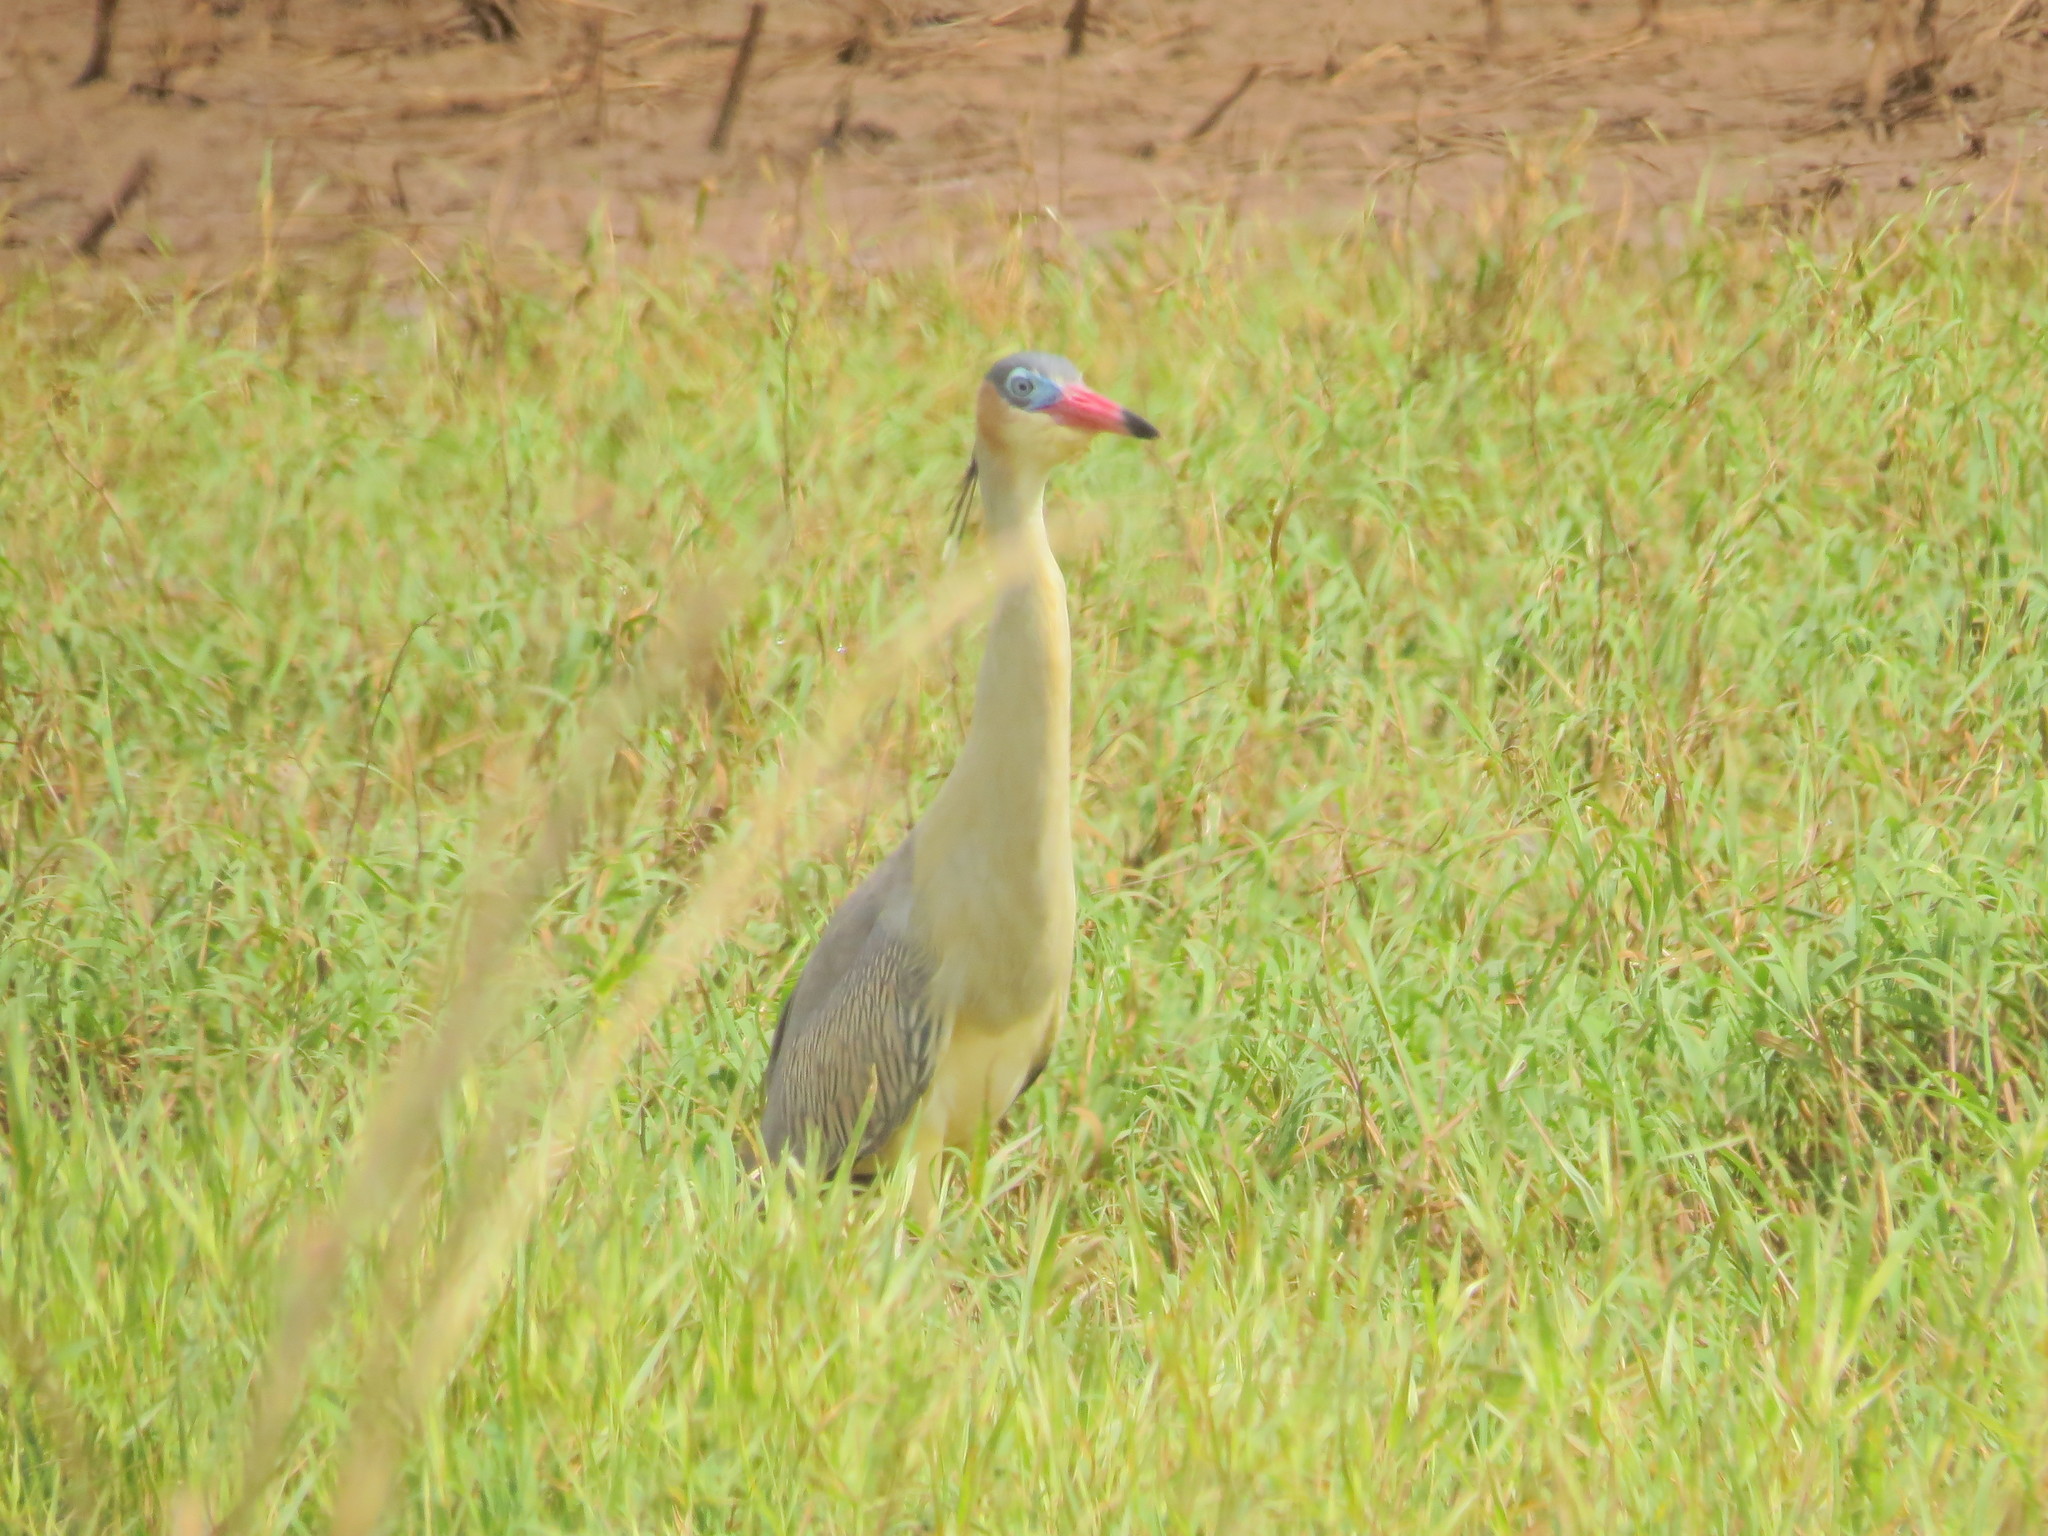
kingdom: Animalia
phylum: Chordata
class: Aves
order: Pelecaniformes
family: Ardeidae
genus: Syrigma
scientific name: Syrigma sibilatrix
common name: Whistling heron
